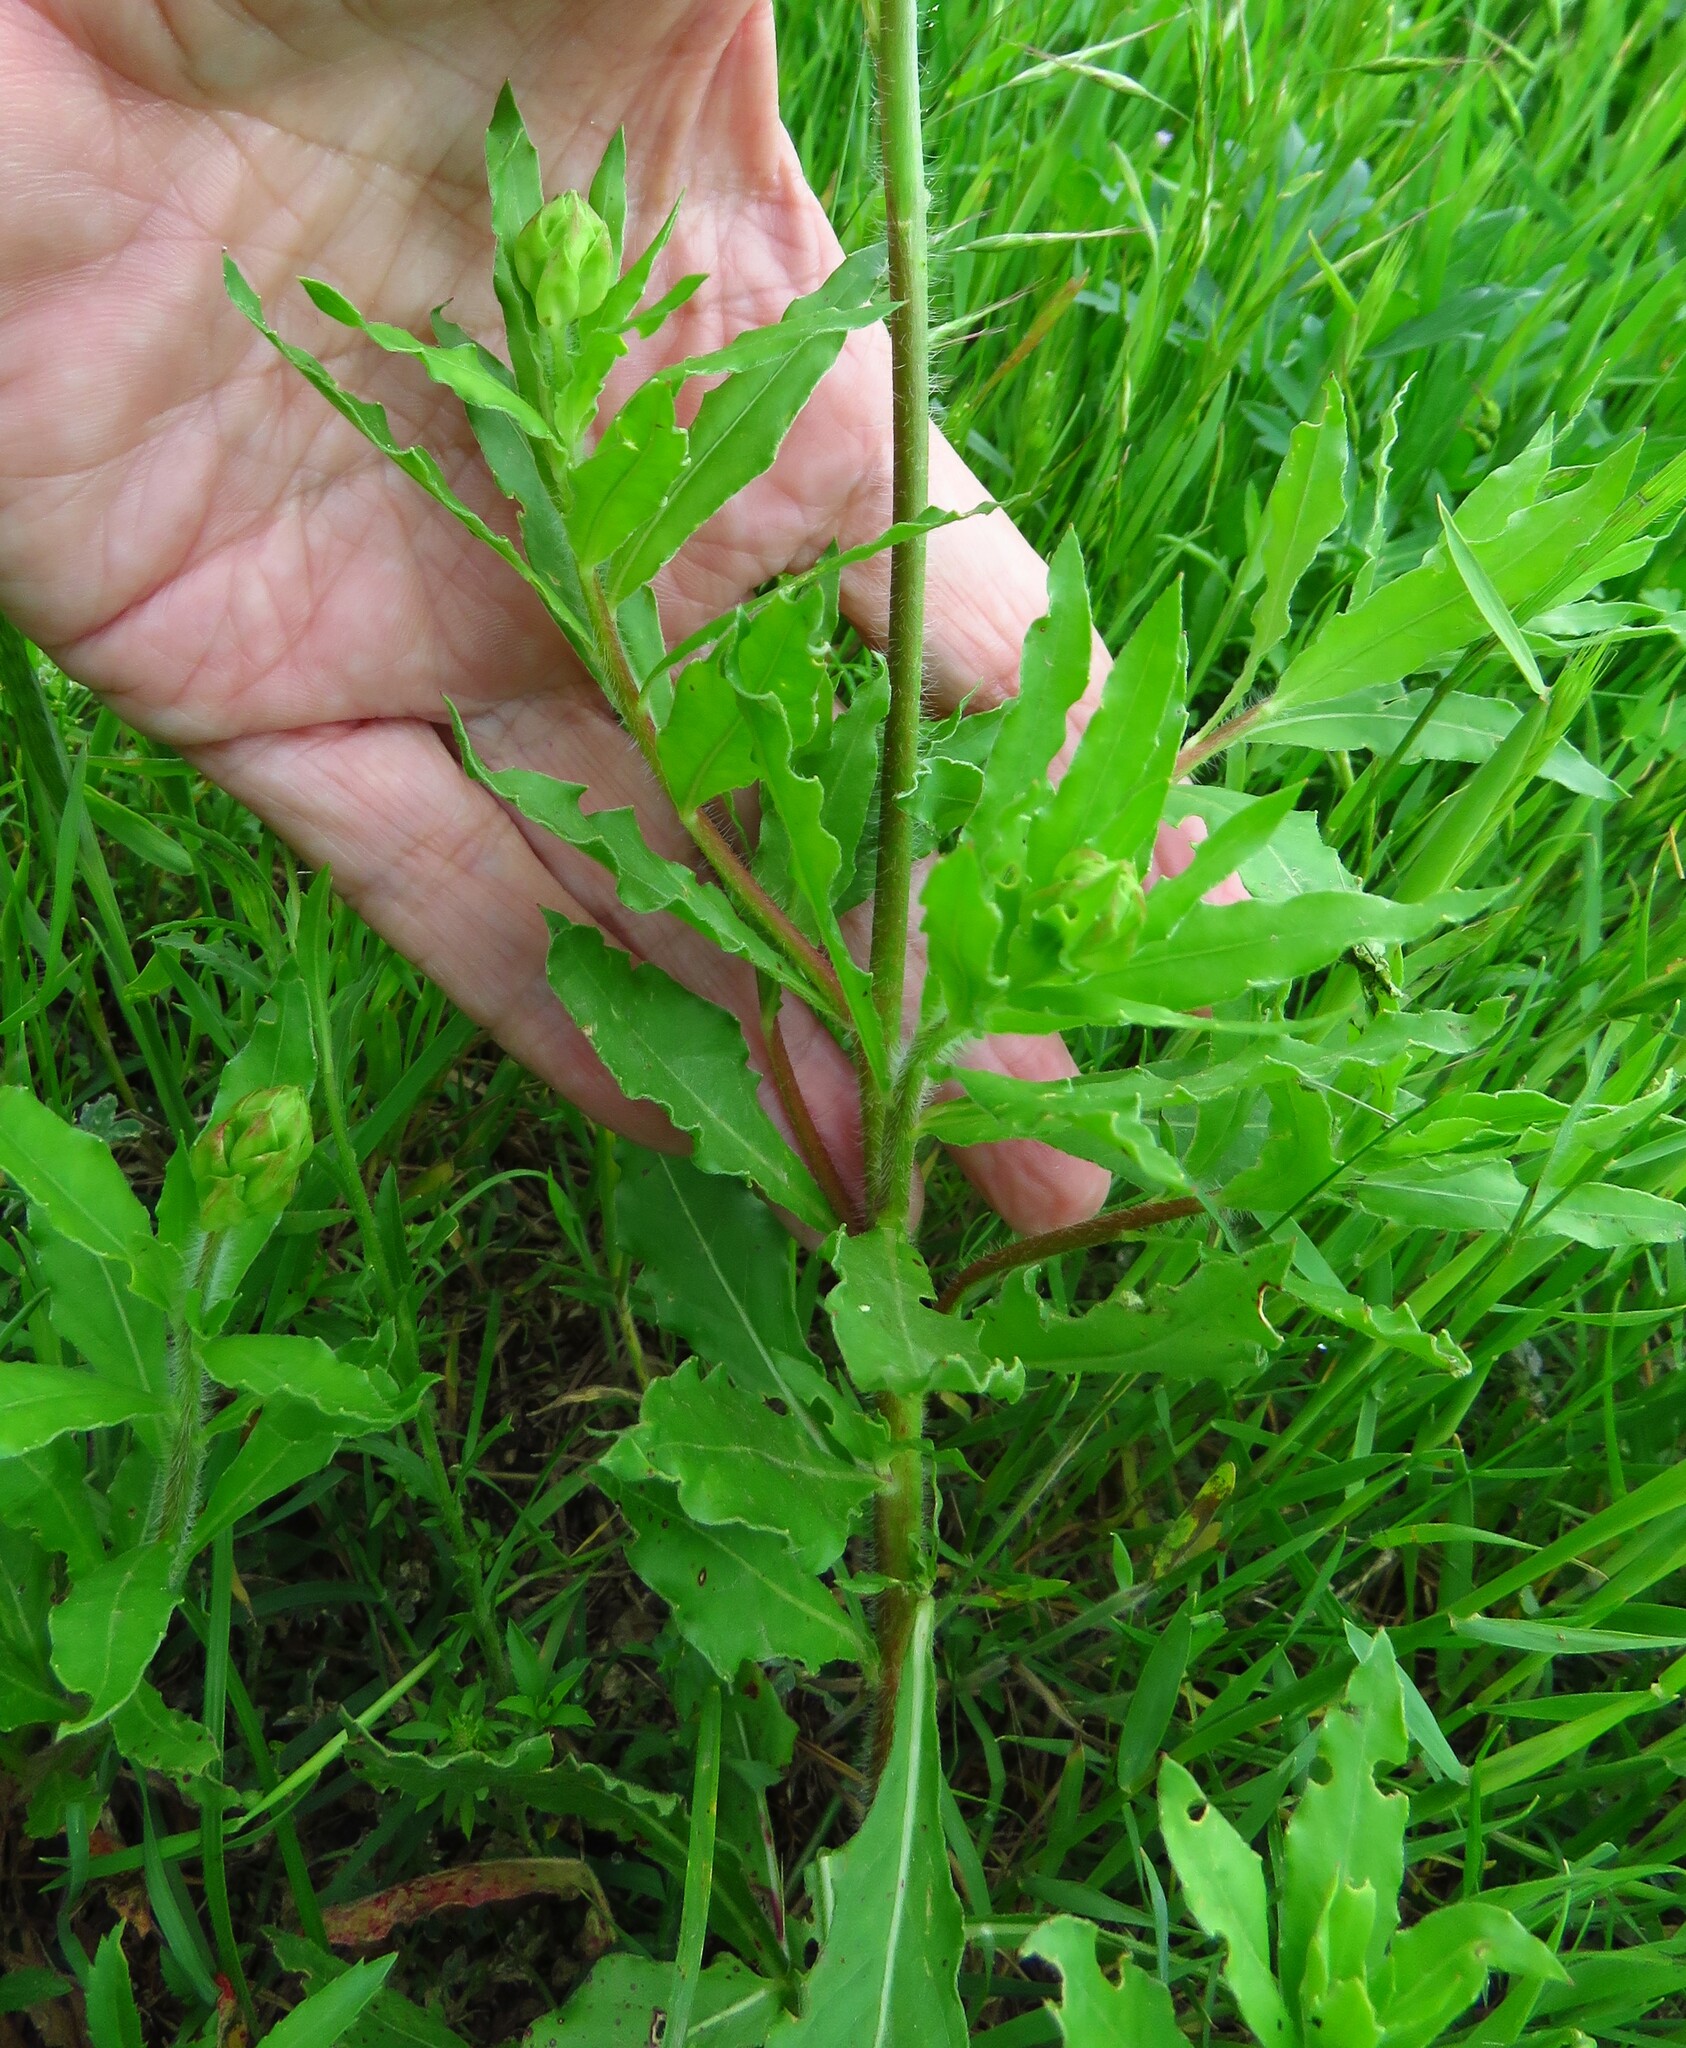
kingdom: Plantae
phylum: Tracheophyta
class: Magnoliopsida
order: Myrtales
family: Onagraceae
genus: Oenothera
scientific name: Oenothera suffulta
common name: Kisses
